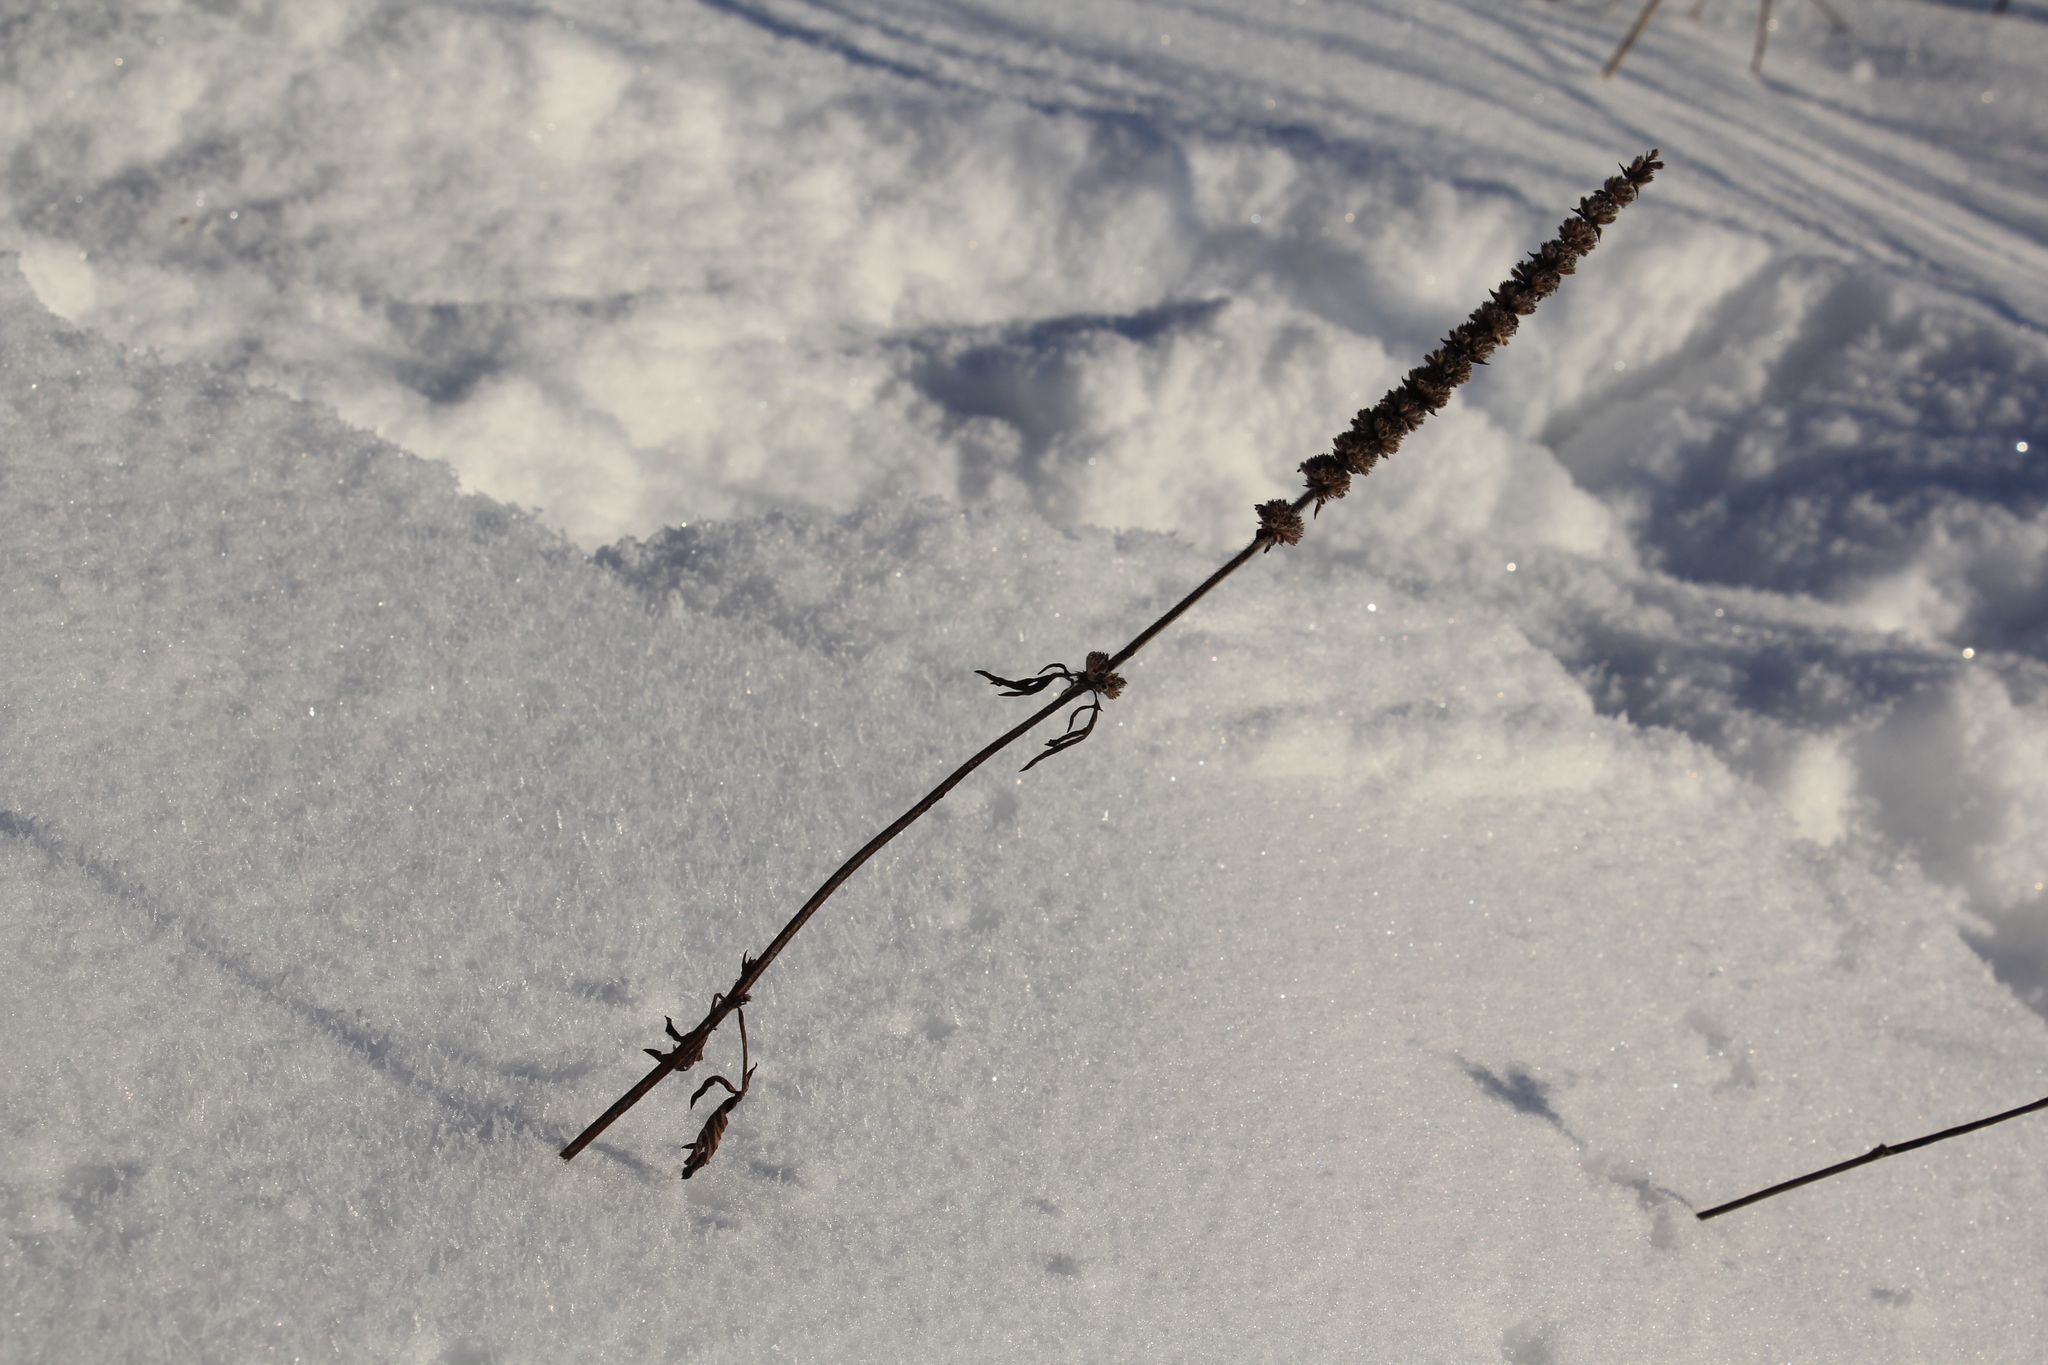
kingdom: Plantae
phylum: Tracheophyta
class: Magnoliopsida
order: Lamiales
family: Lamiaceae
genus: Nepeta
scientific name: Nepeta multifida
